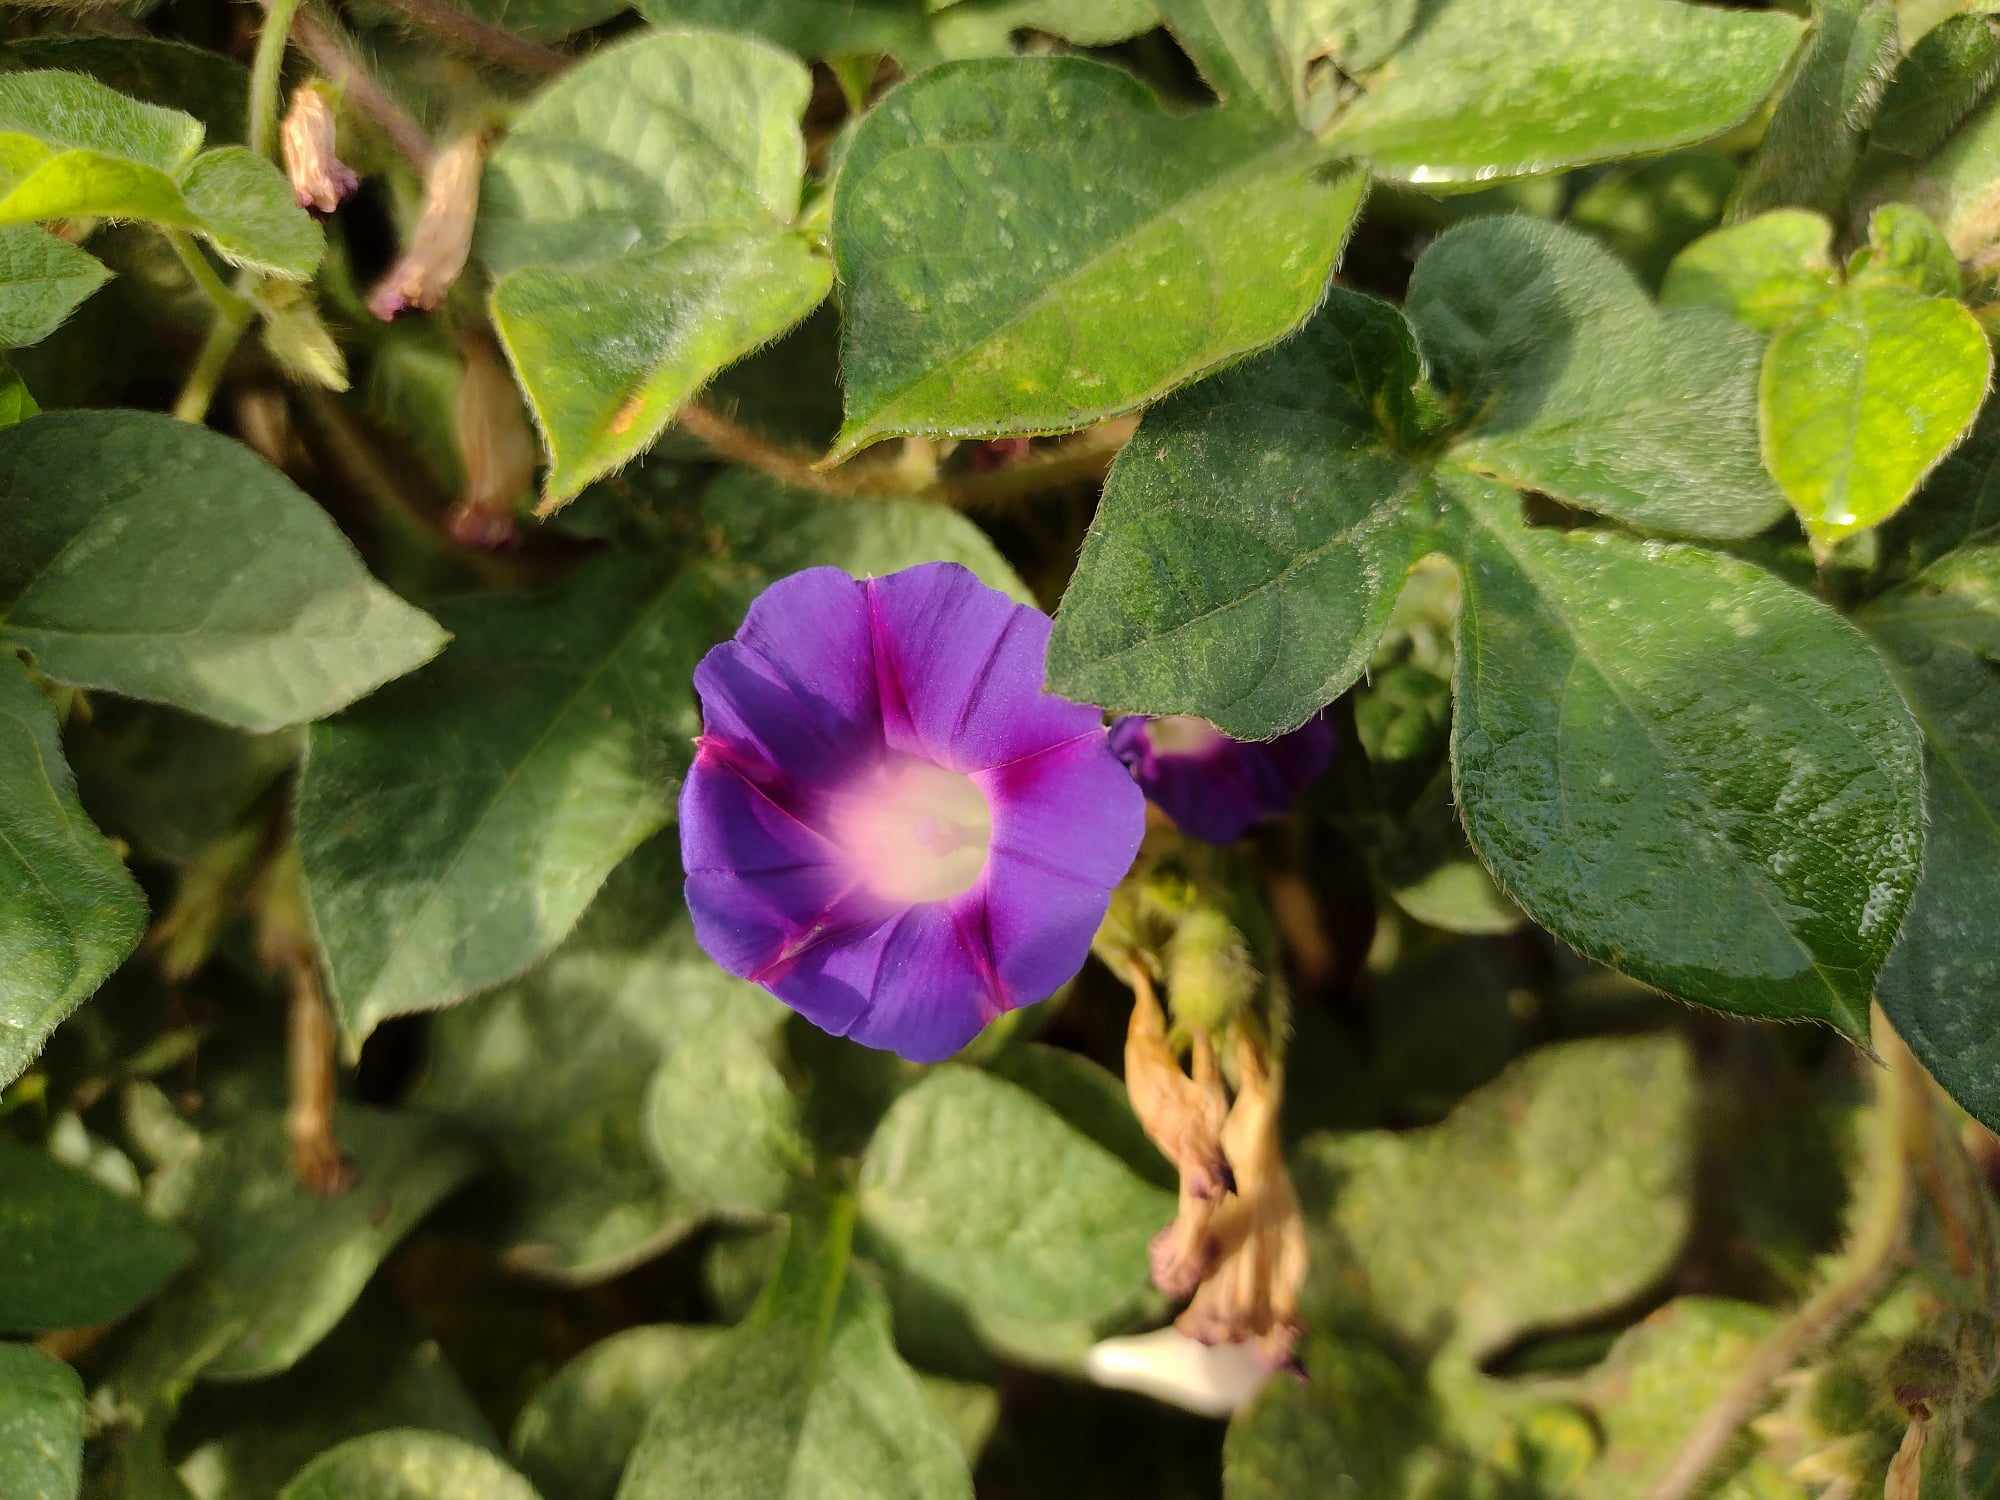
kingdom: Plantae
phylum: Tracheophyta
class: Magnoliopsida
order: Solanales
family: Convolvulaceae
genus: Ipomoea
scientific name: Ipomoea purpurea
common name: Common morning-glory
